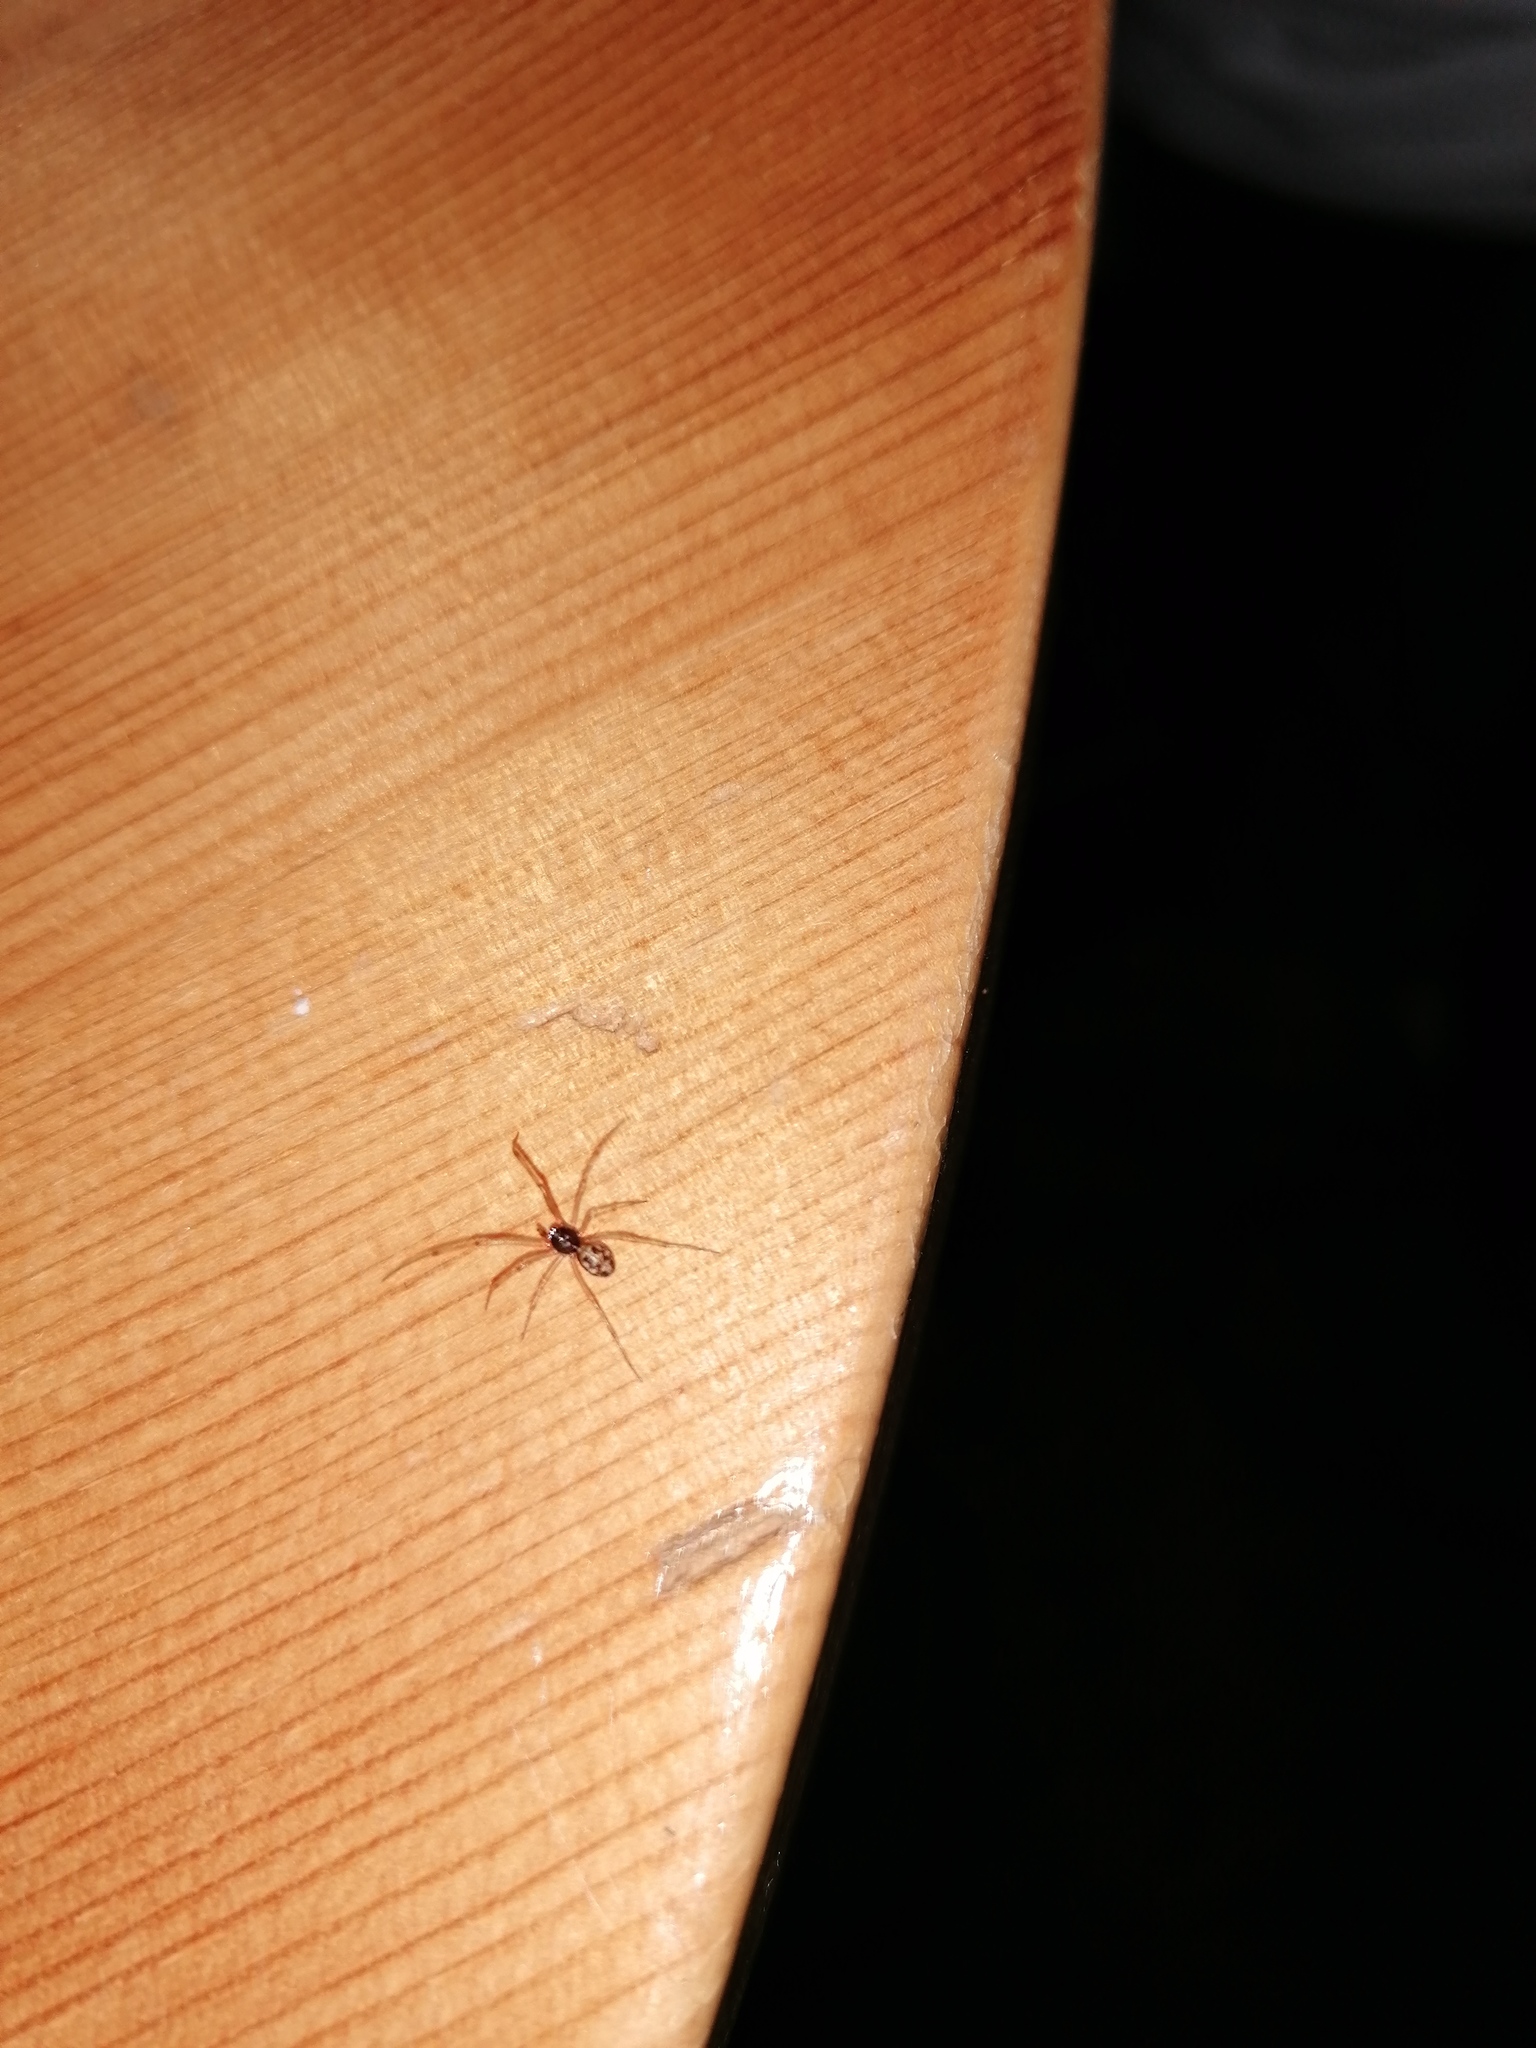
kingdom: Animalia
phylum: Arthropoda
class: Arachnida
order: Araneae
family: Theridiidae
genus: Steatoda
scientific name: Steatoda triangulosa
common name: Triangulate bud spider
